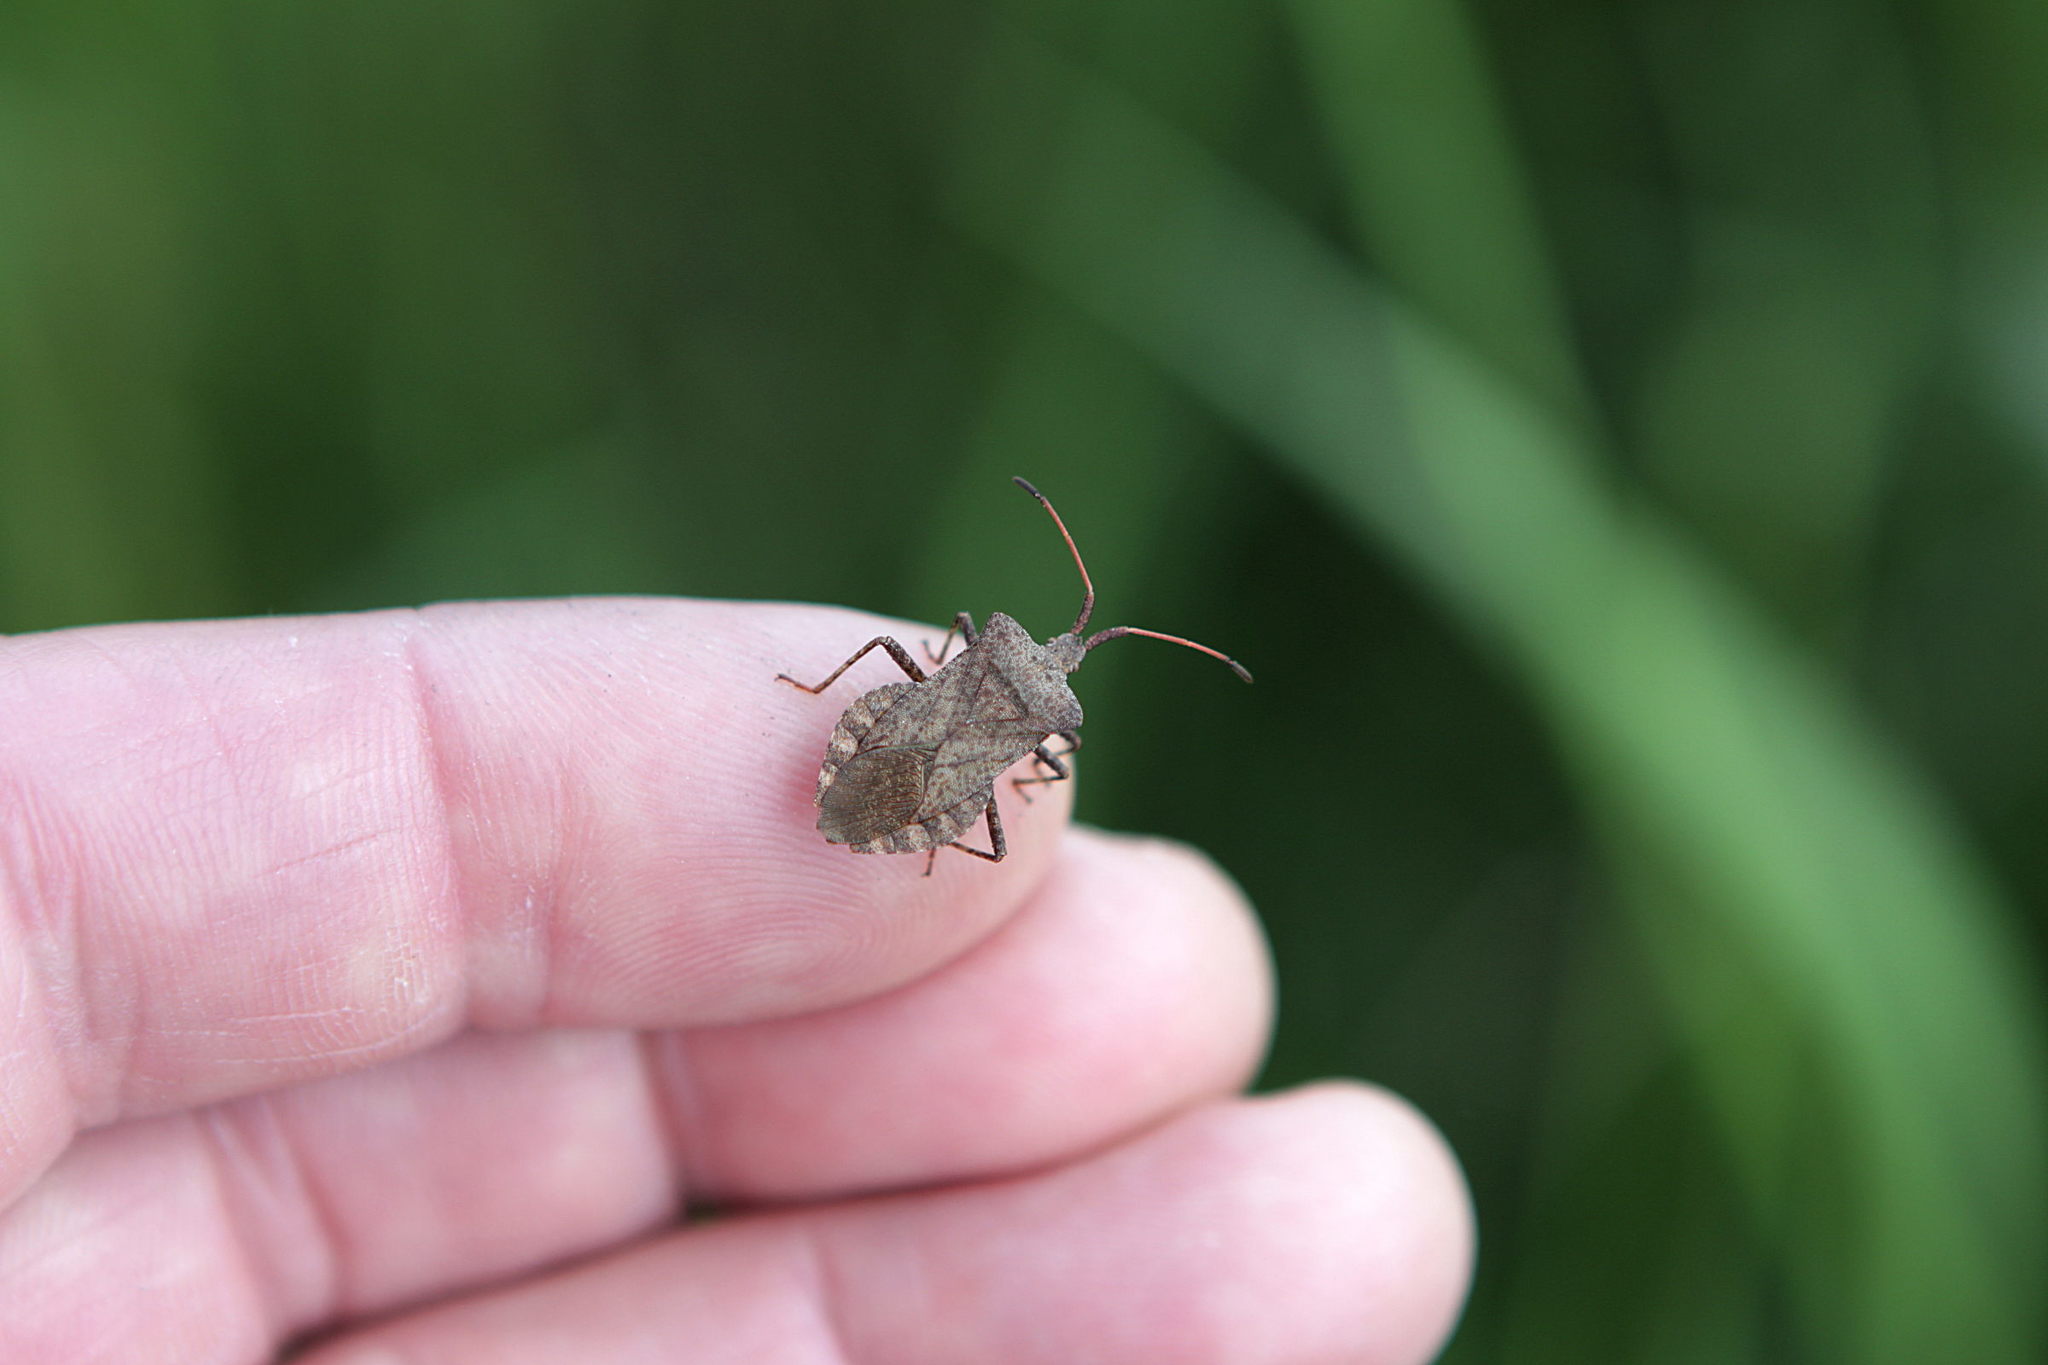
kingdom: Animalia
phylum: Arthropoda
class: Insecta
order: Hemiptera
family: Coreidae
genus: Coreus
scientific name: Coreus marginatus
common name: Dock bug
